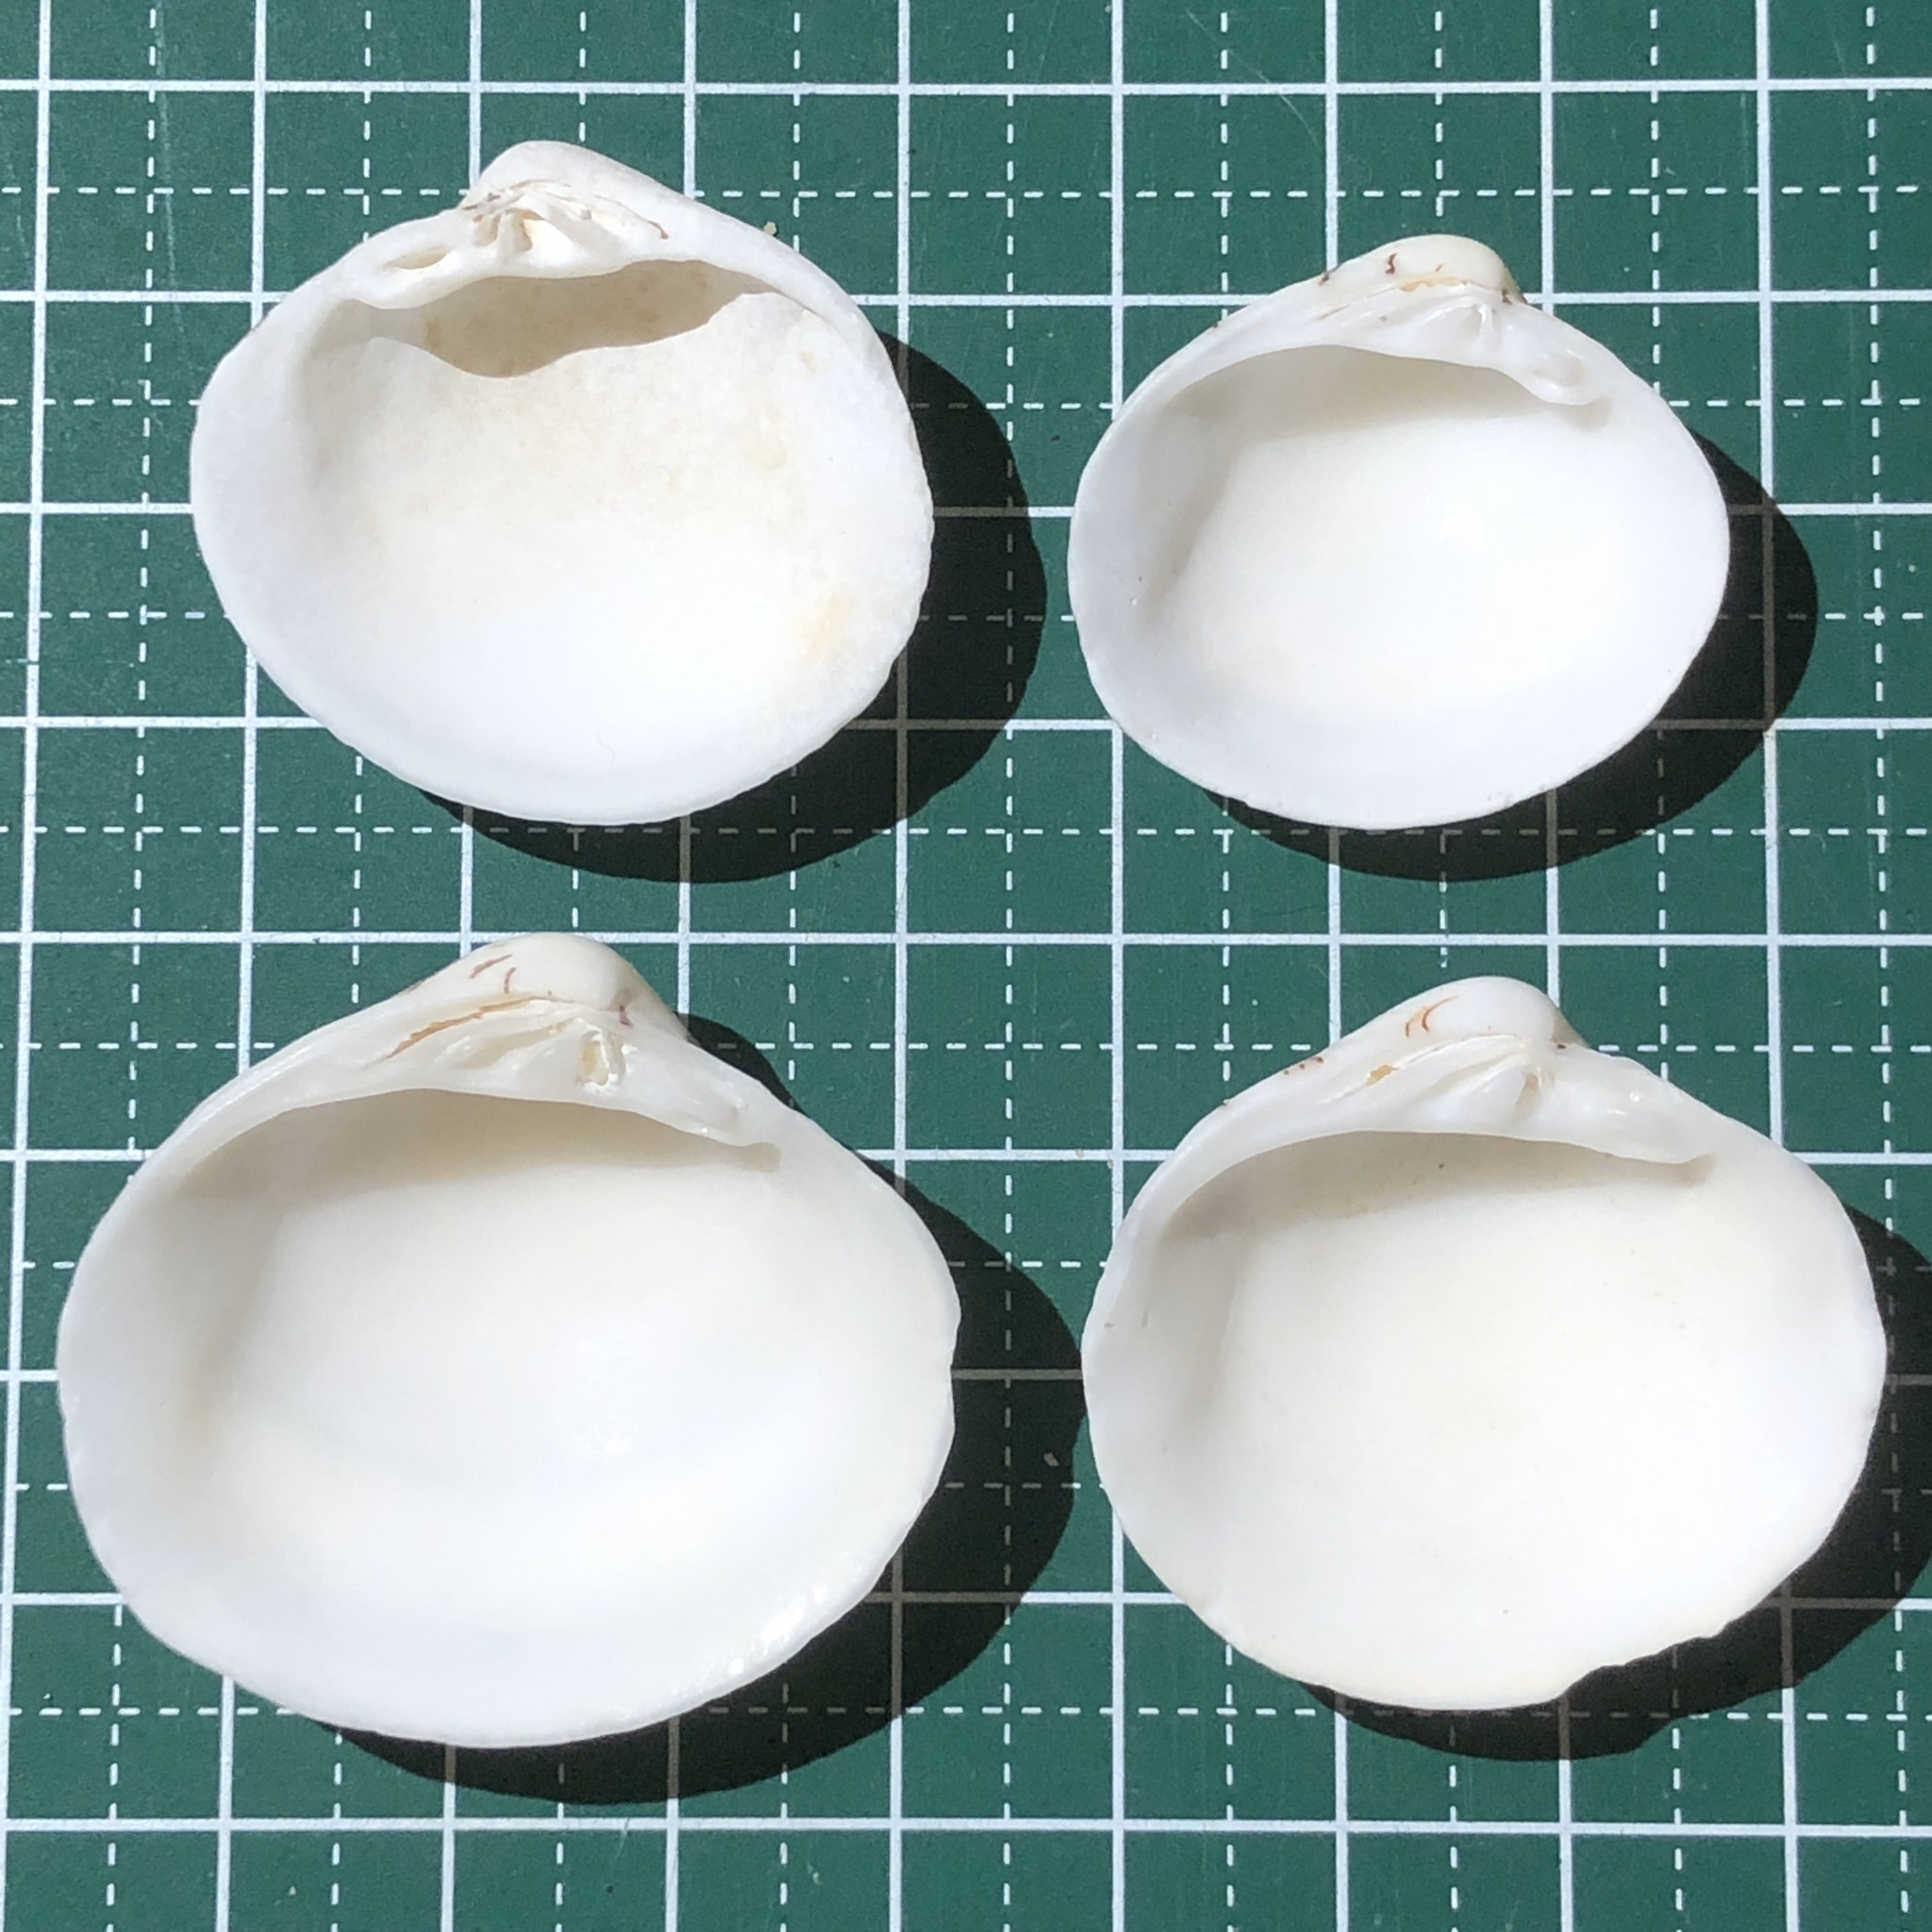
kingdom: Animalia
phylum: Mollusca
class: Bivalvia
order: Venerida
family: Veneridae
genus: Lioconcha
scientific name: Lioconcha castrensis
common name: Camp pitar-venus
